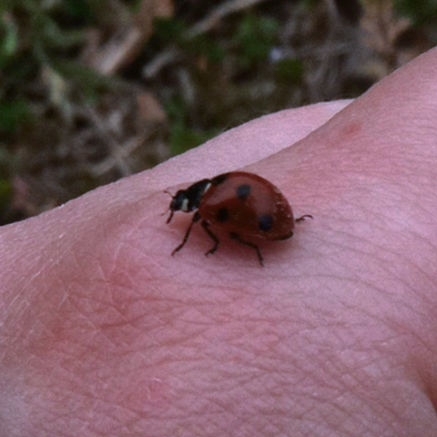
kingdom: Animalia
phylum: Arthropoda
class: Insecta
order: Coleoptera
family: Coccinellidae
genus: Coccinella
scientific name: Coccinella septempunctata
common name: Sevenspotted lady beetle
